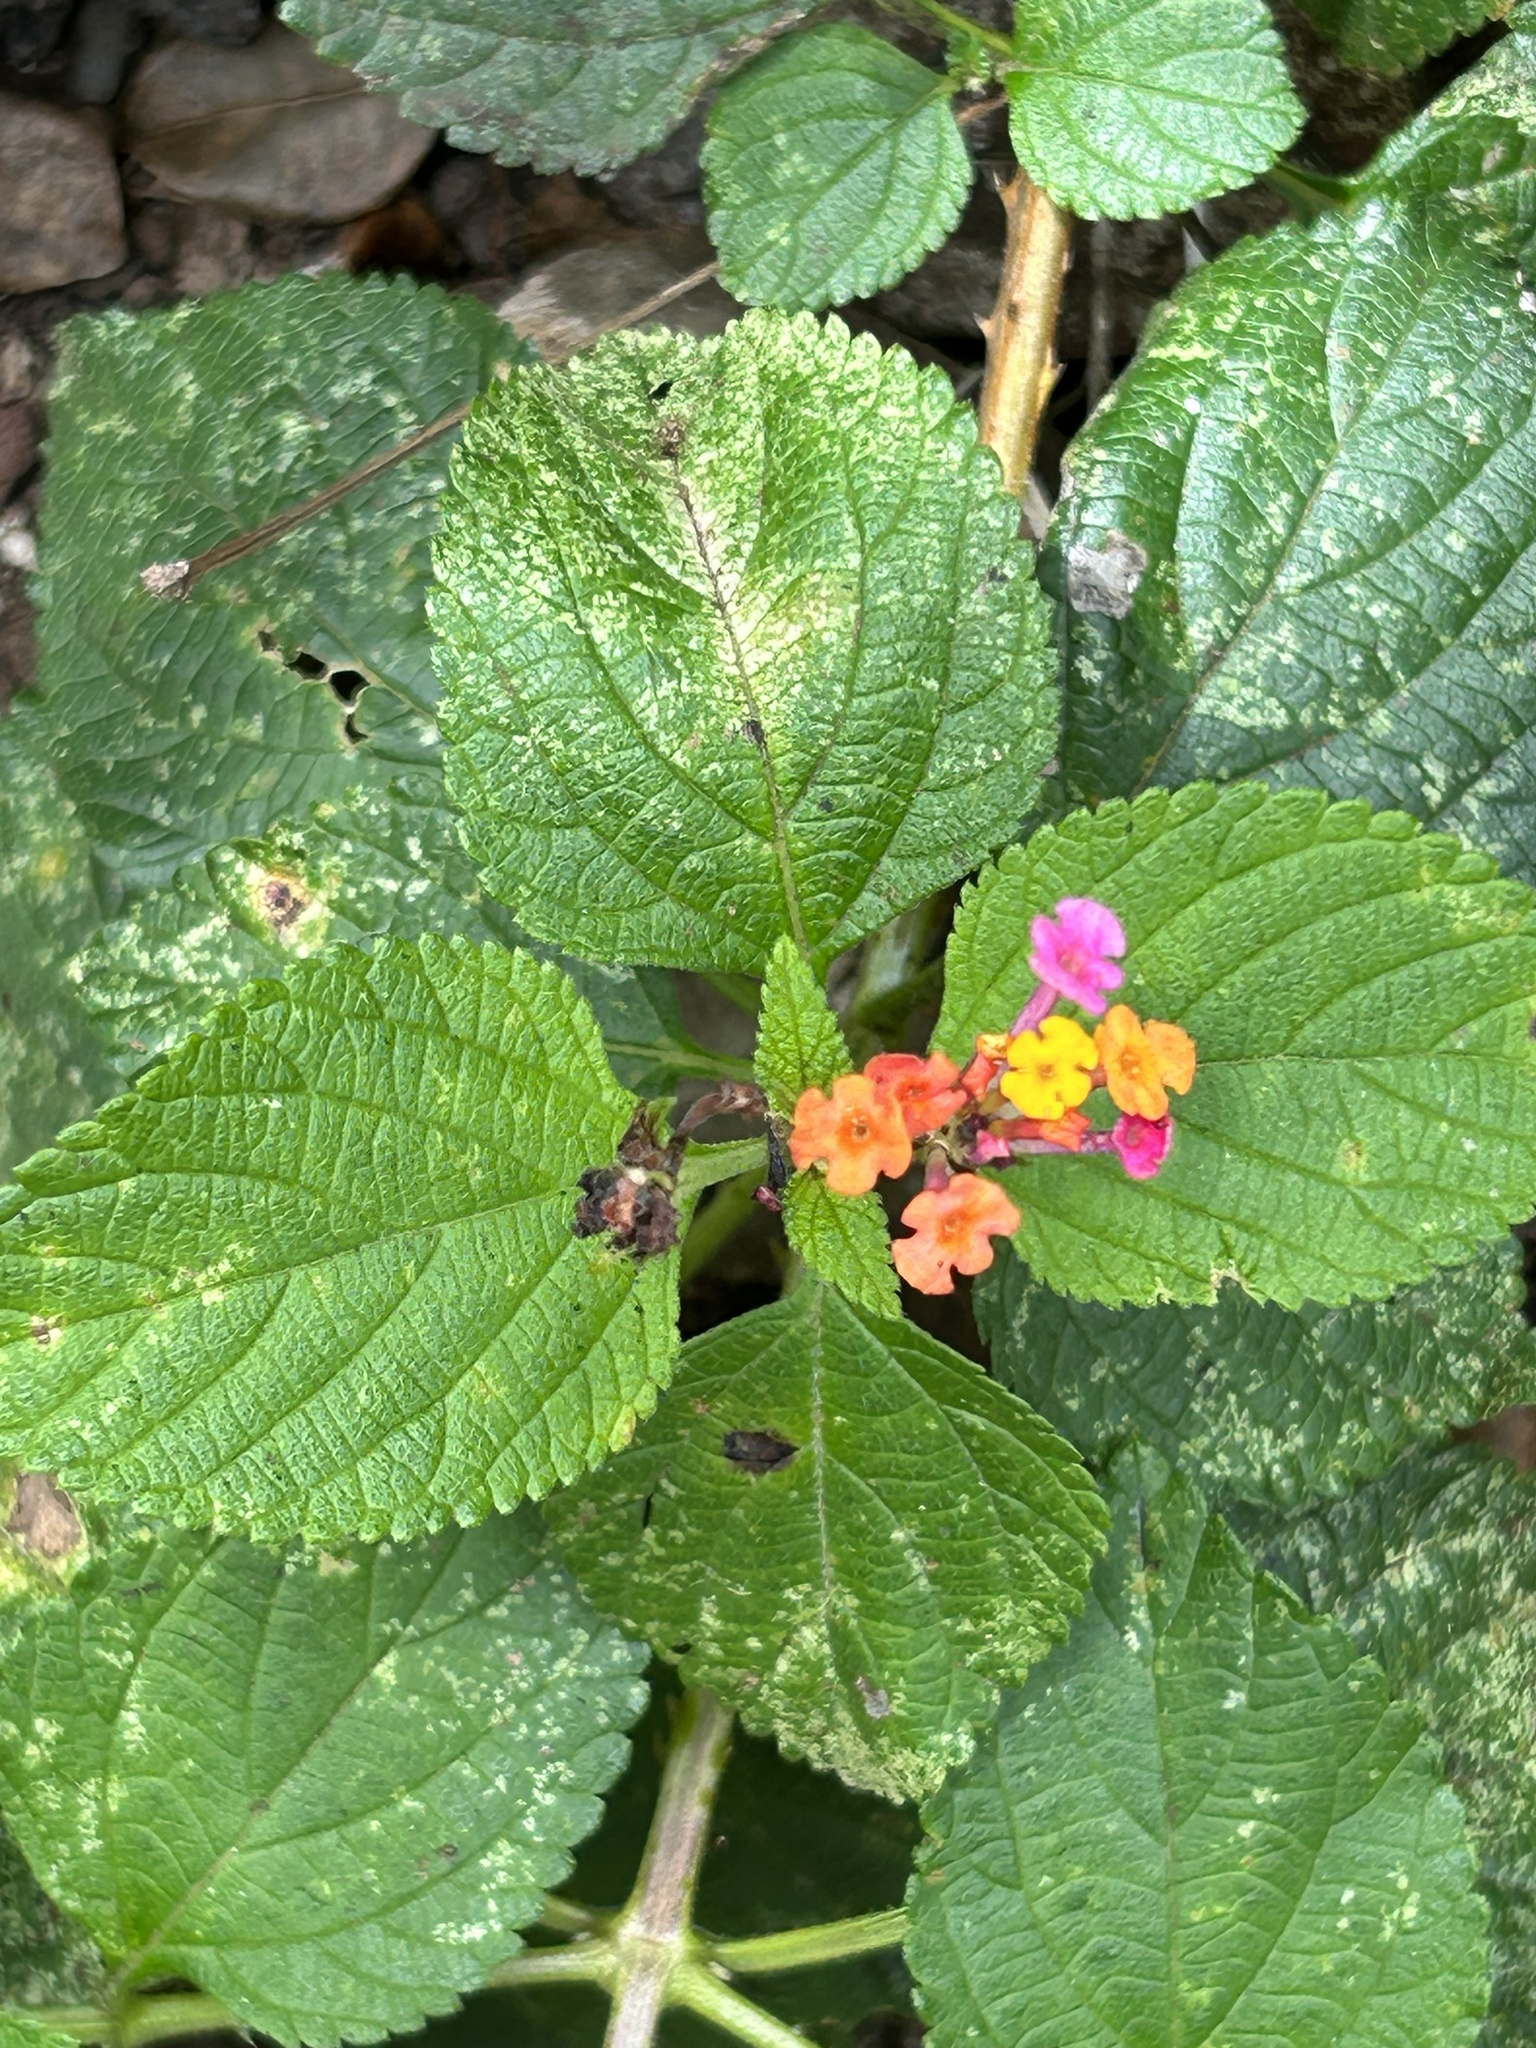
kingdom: Plantae
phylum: Tracheophyta
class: Magnoliopsida
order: Lamiales
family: Verbenaceae
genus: Lantana
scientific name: Lantana camara
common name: Lantana
